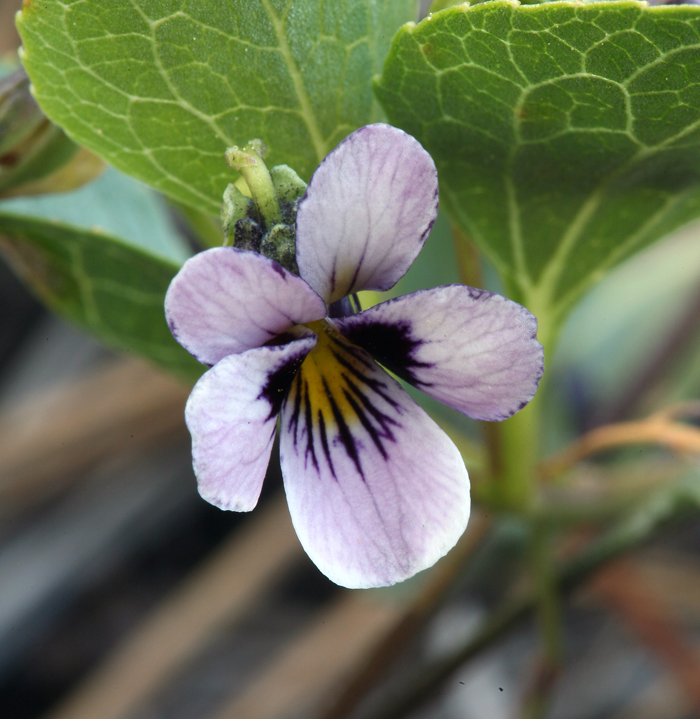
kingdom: Plantae
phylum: Tracheophyta
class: Magnoliopsida
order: Malpighiales
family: Violaceae
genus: Viola
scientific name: Viola cuneata
